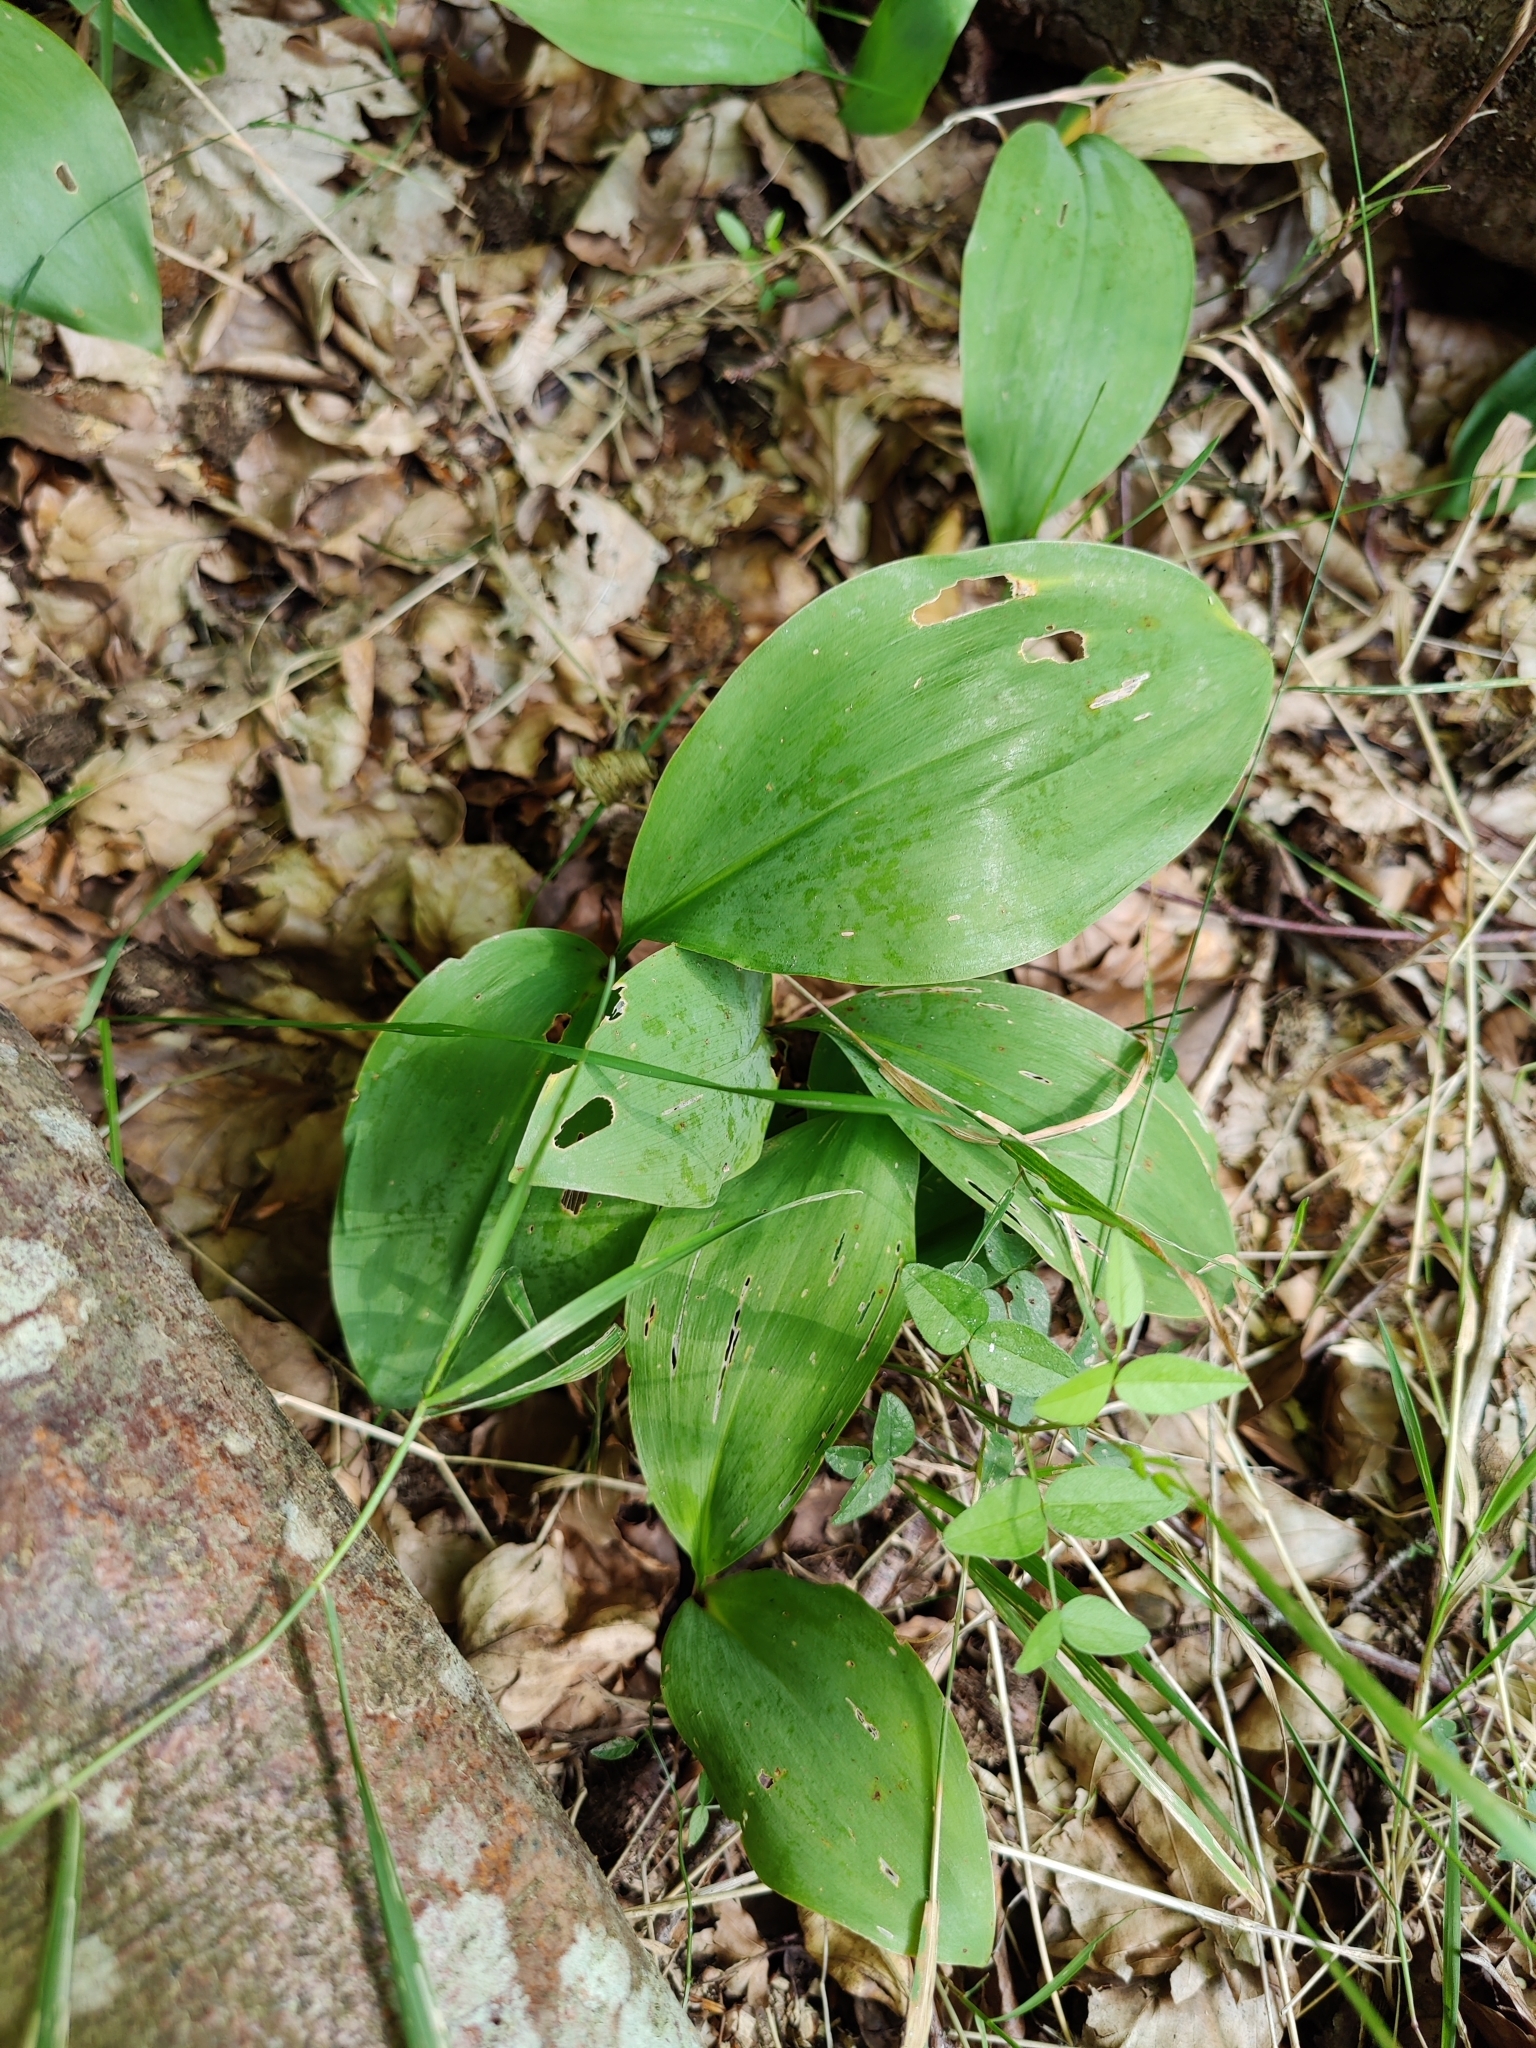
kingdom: Plantae
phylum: Tracheophyta
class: Liliopsida
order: Asparagales
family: Asparagaceae
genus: Convallaria
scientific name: Convallaria majalis
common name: Lily-of-the-valley
